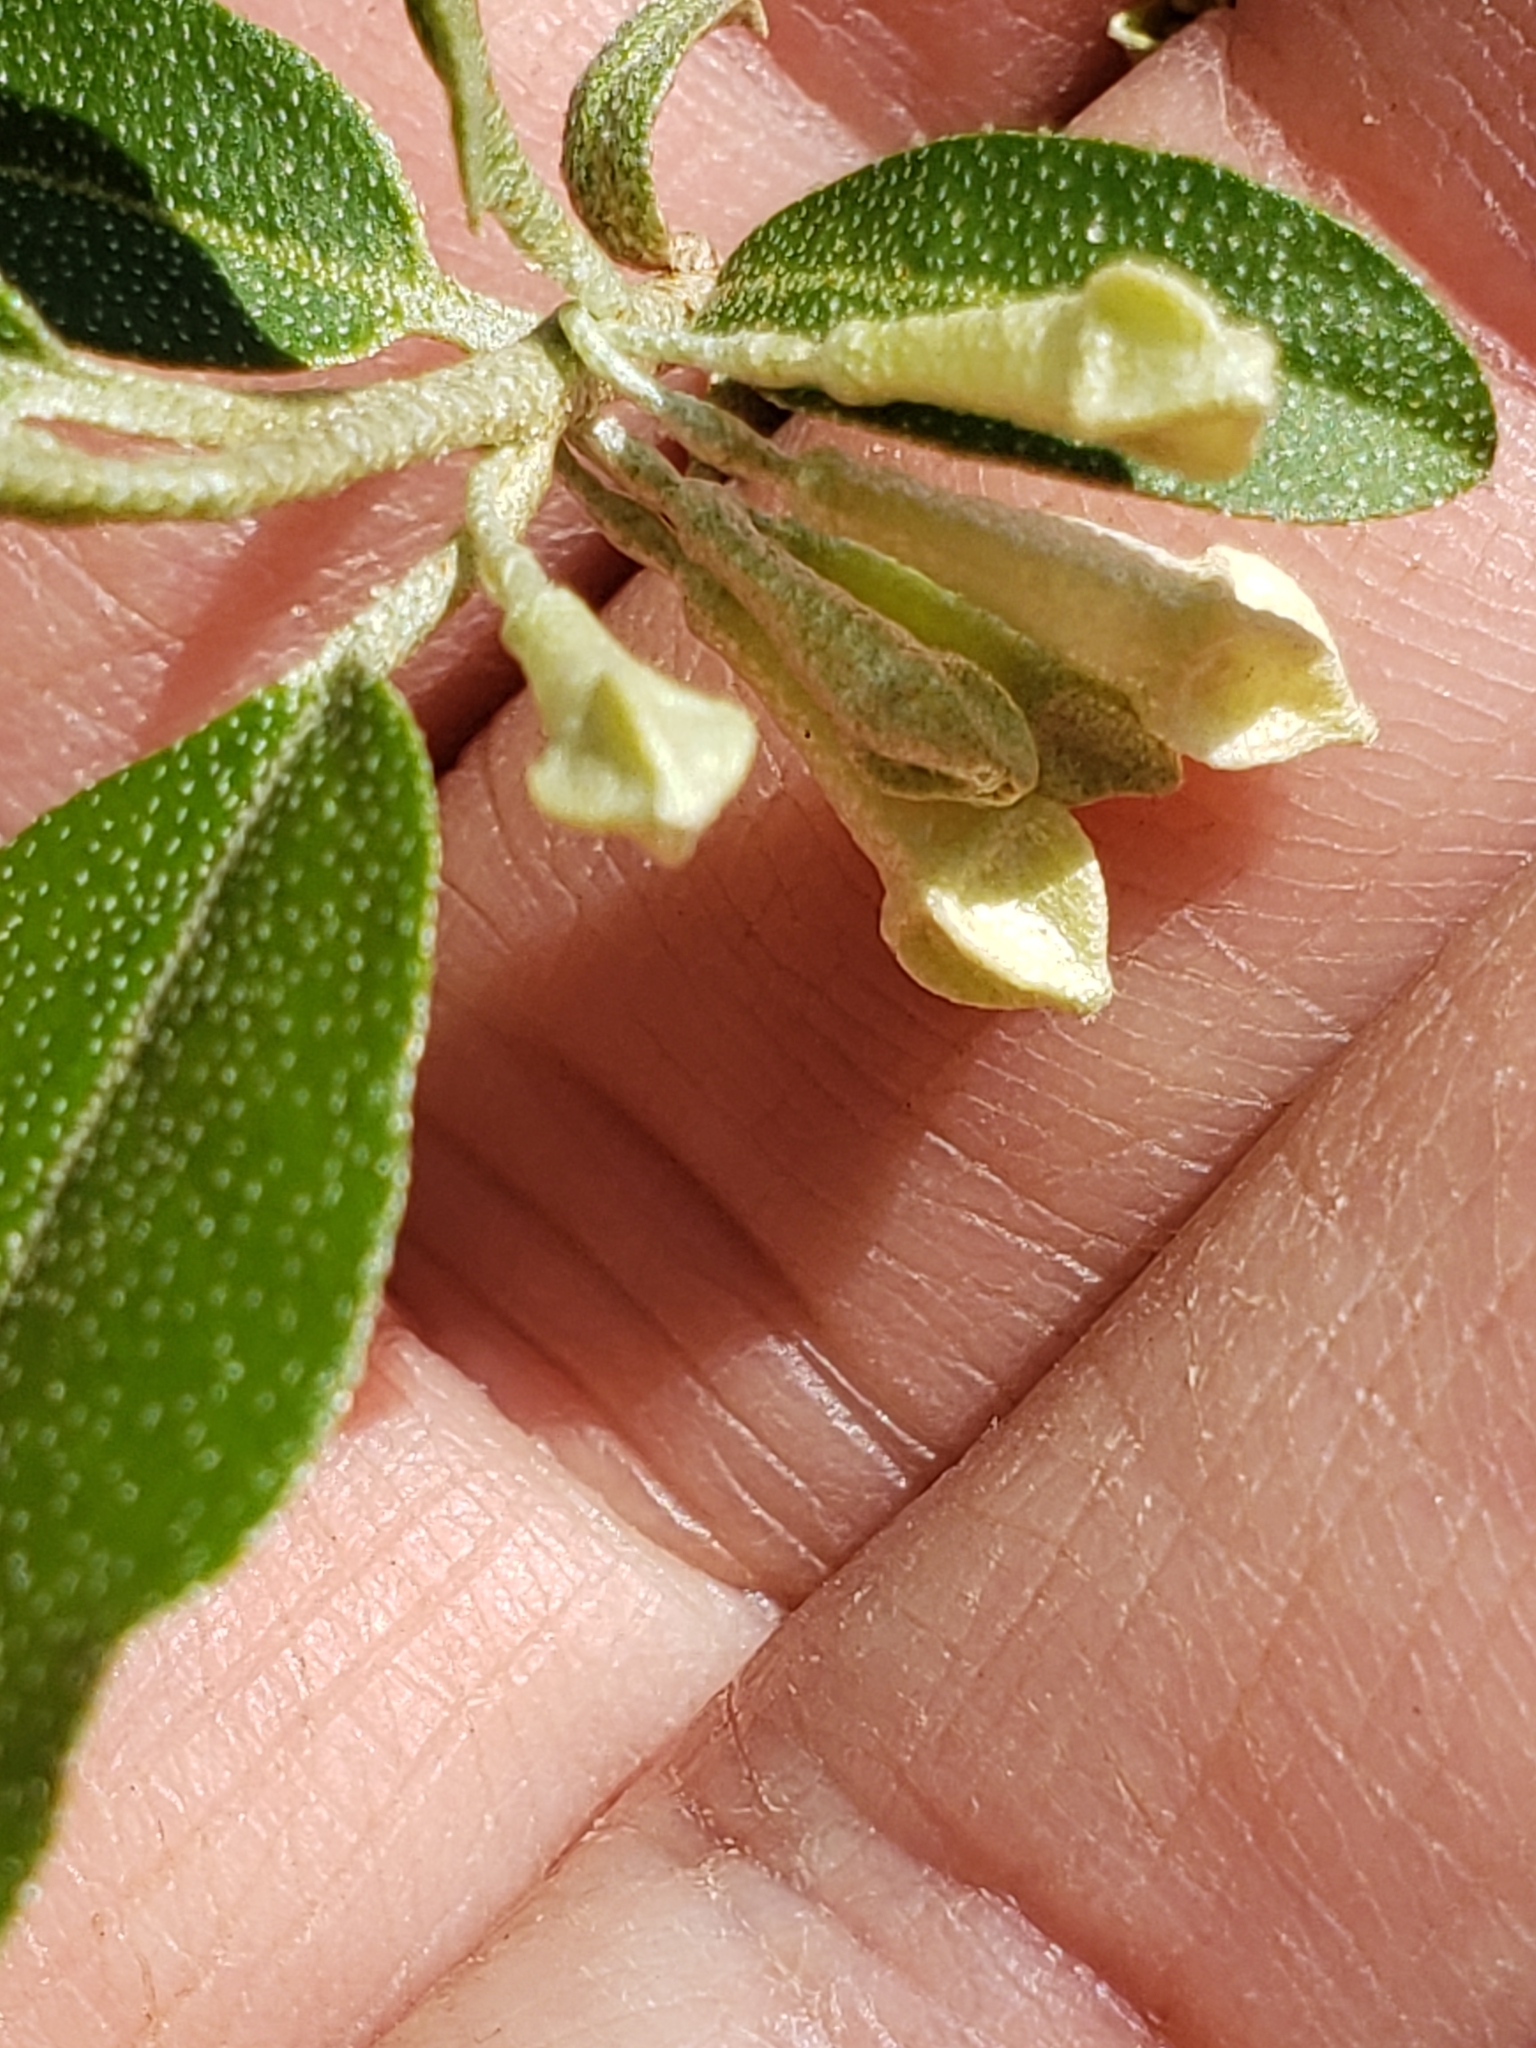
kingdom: Plantae
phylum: Tracheophyta
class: Magnoliopsida
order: Rosales
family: Elaeagnaceae
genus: Elaeagnus
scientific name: Elaeagnus umbellata
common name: Autumn olive
